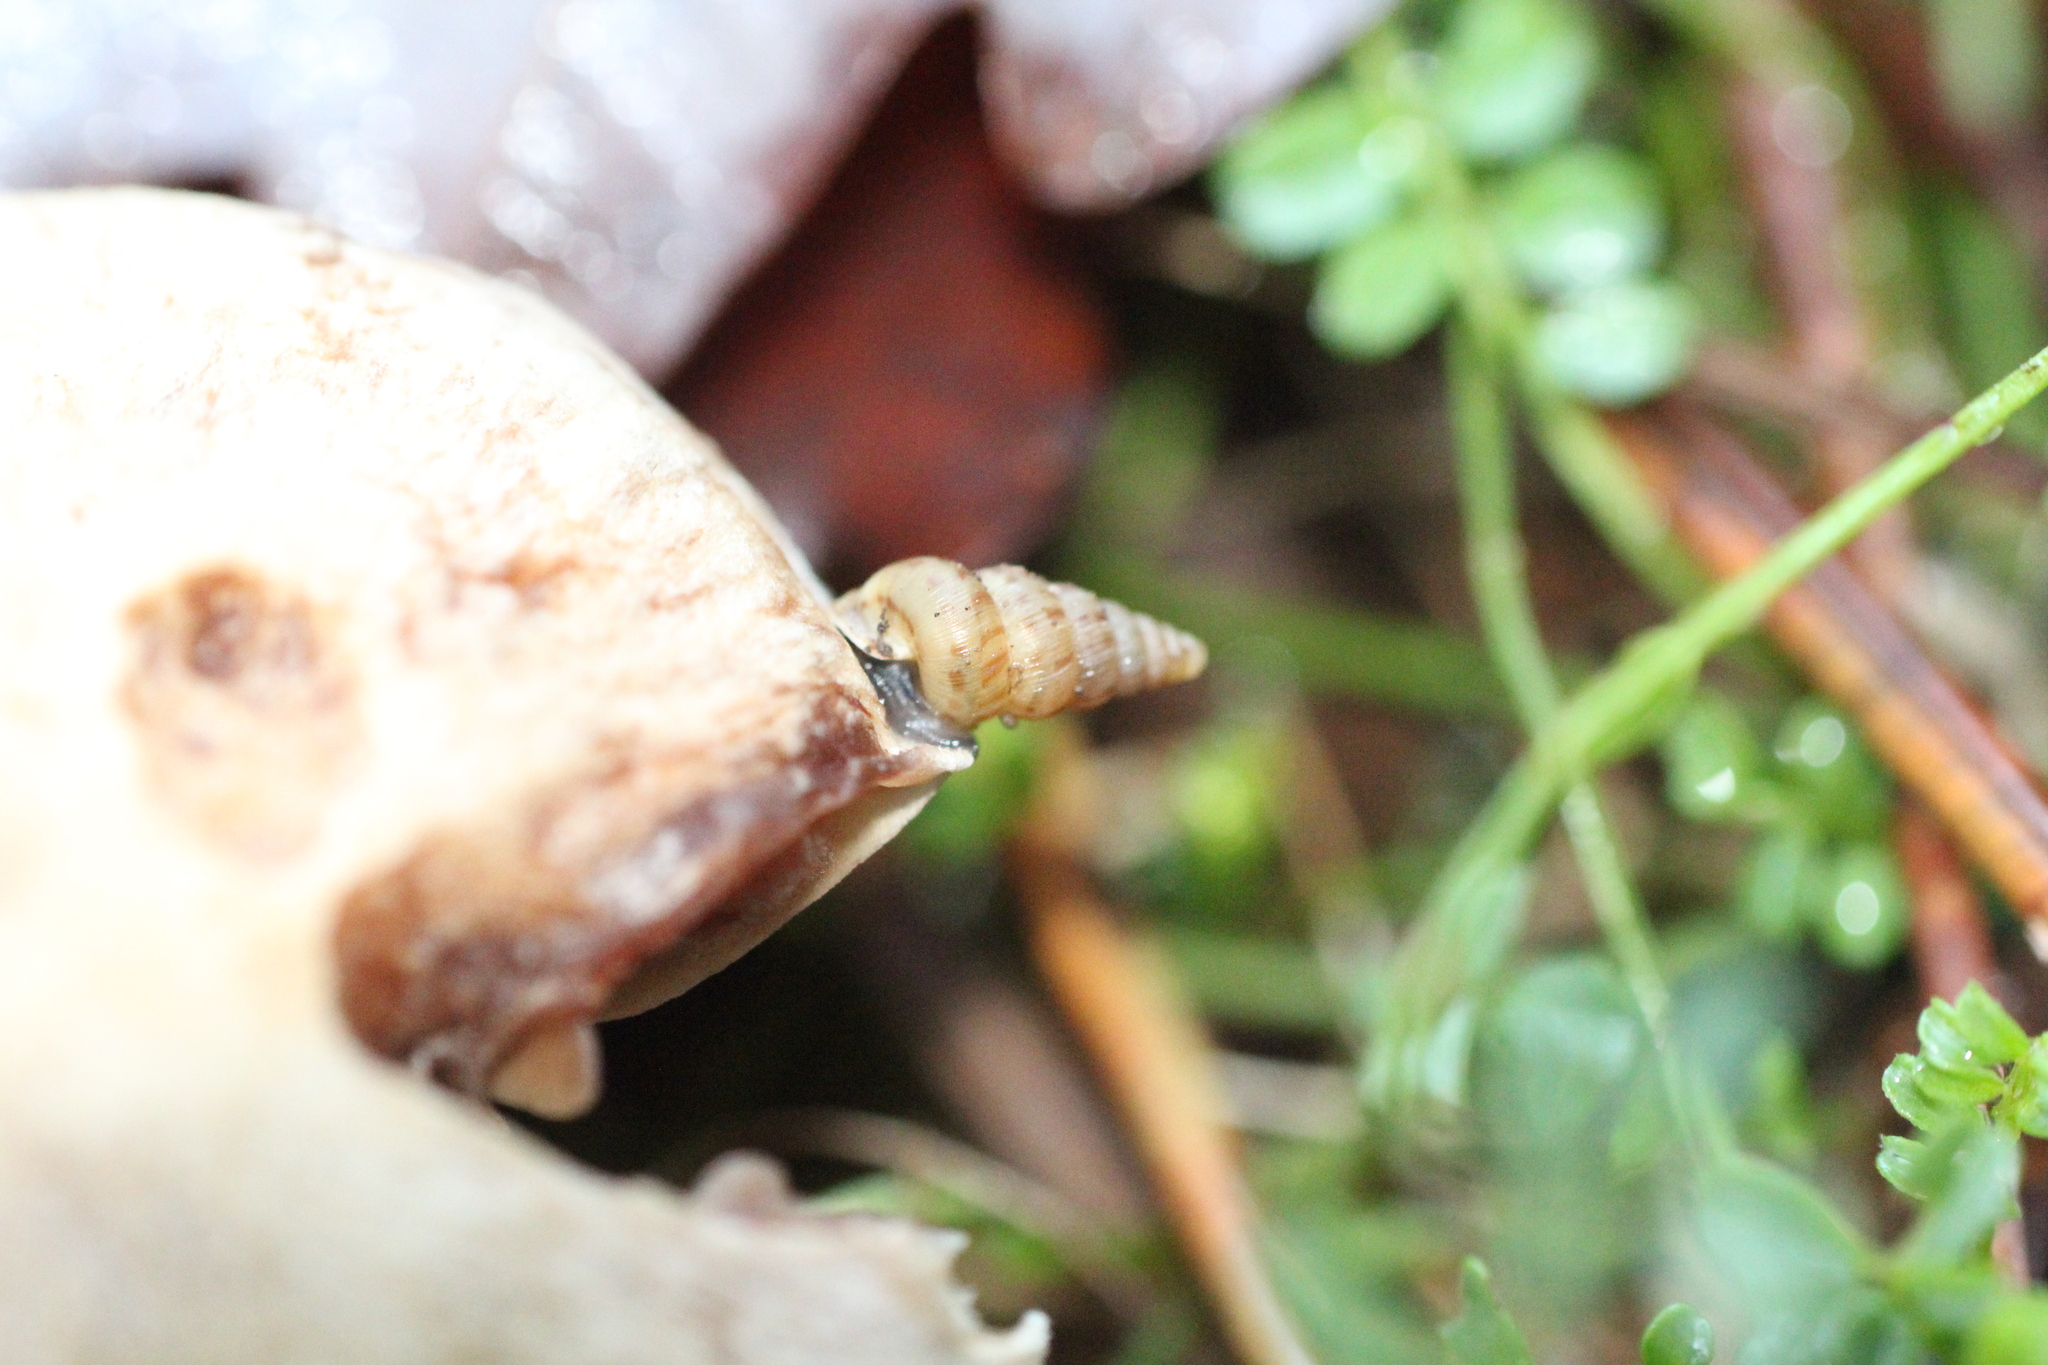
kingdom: Animalia
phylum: Mollusca
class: Gastropoda
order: Architaenioglossa
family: Cochlostomatidae
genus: Cochlostoma
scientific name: Cochlostoma septemspirale
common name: Seven-whorl snail
